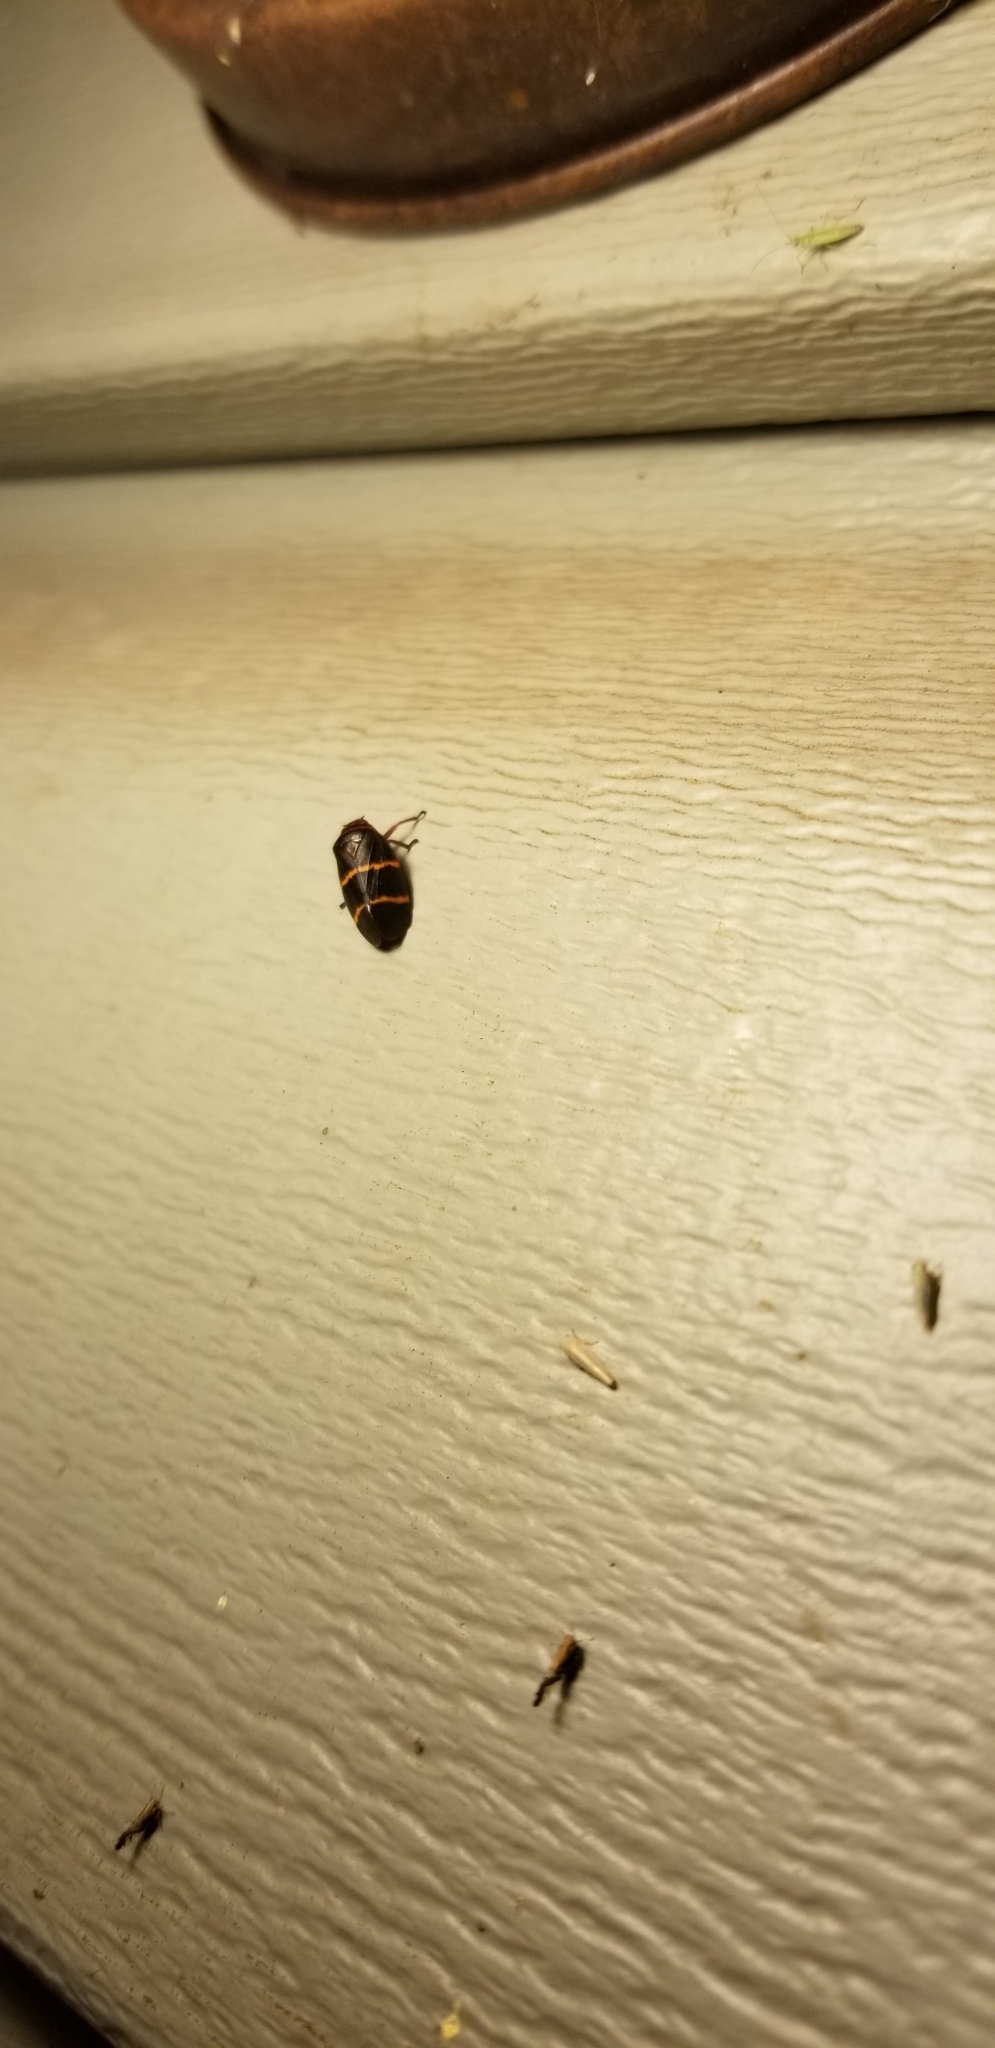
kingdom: Animalia
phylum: Arthropoda
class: Insecta
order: Hemiptera
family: Cercopidae
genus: Prosapia
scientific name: Prosapia bicincta
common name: Twolined spittlebug
